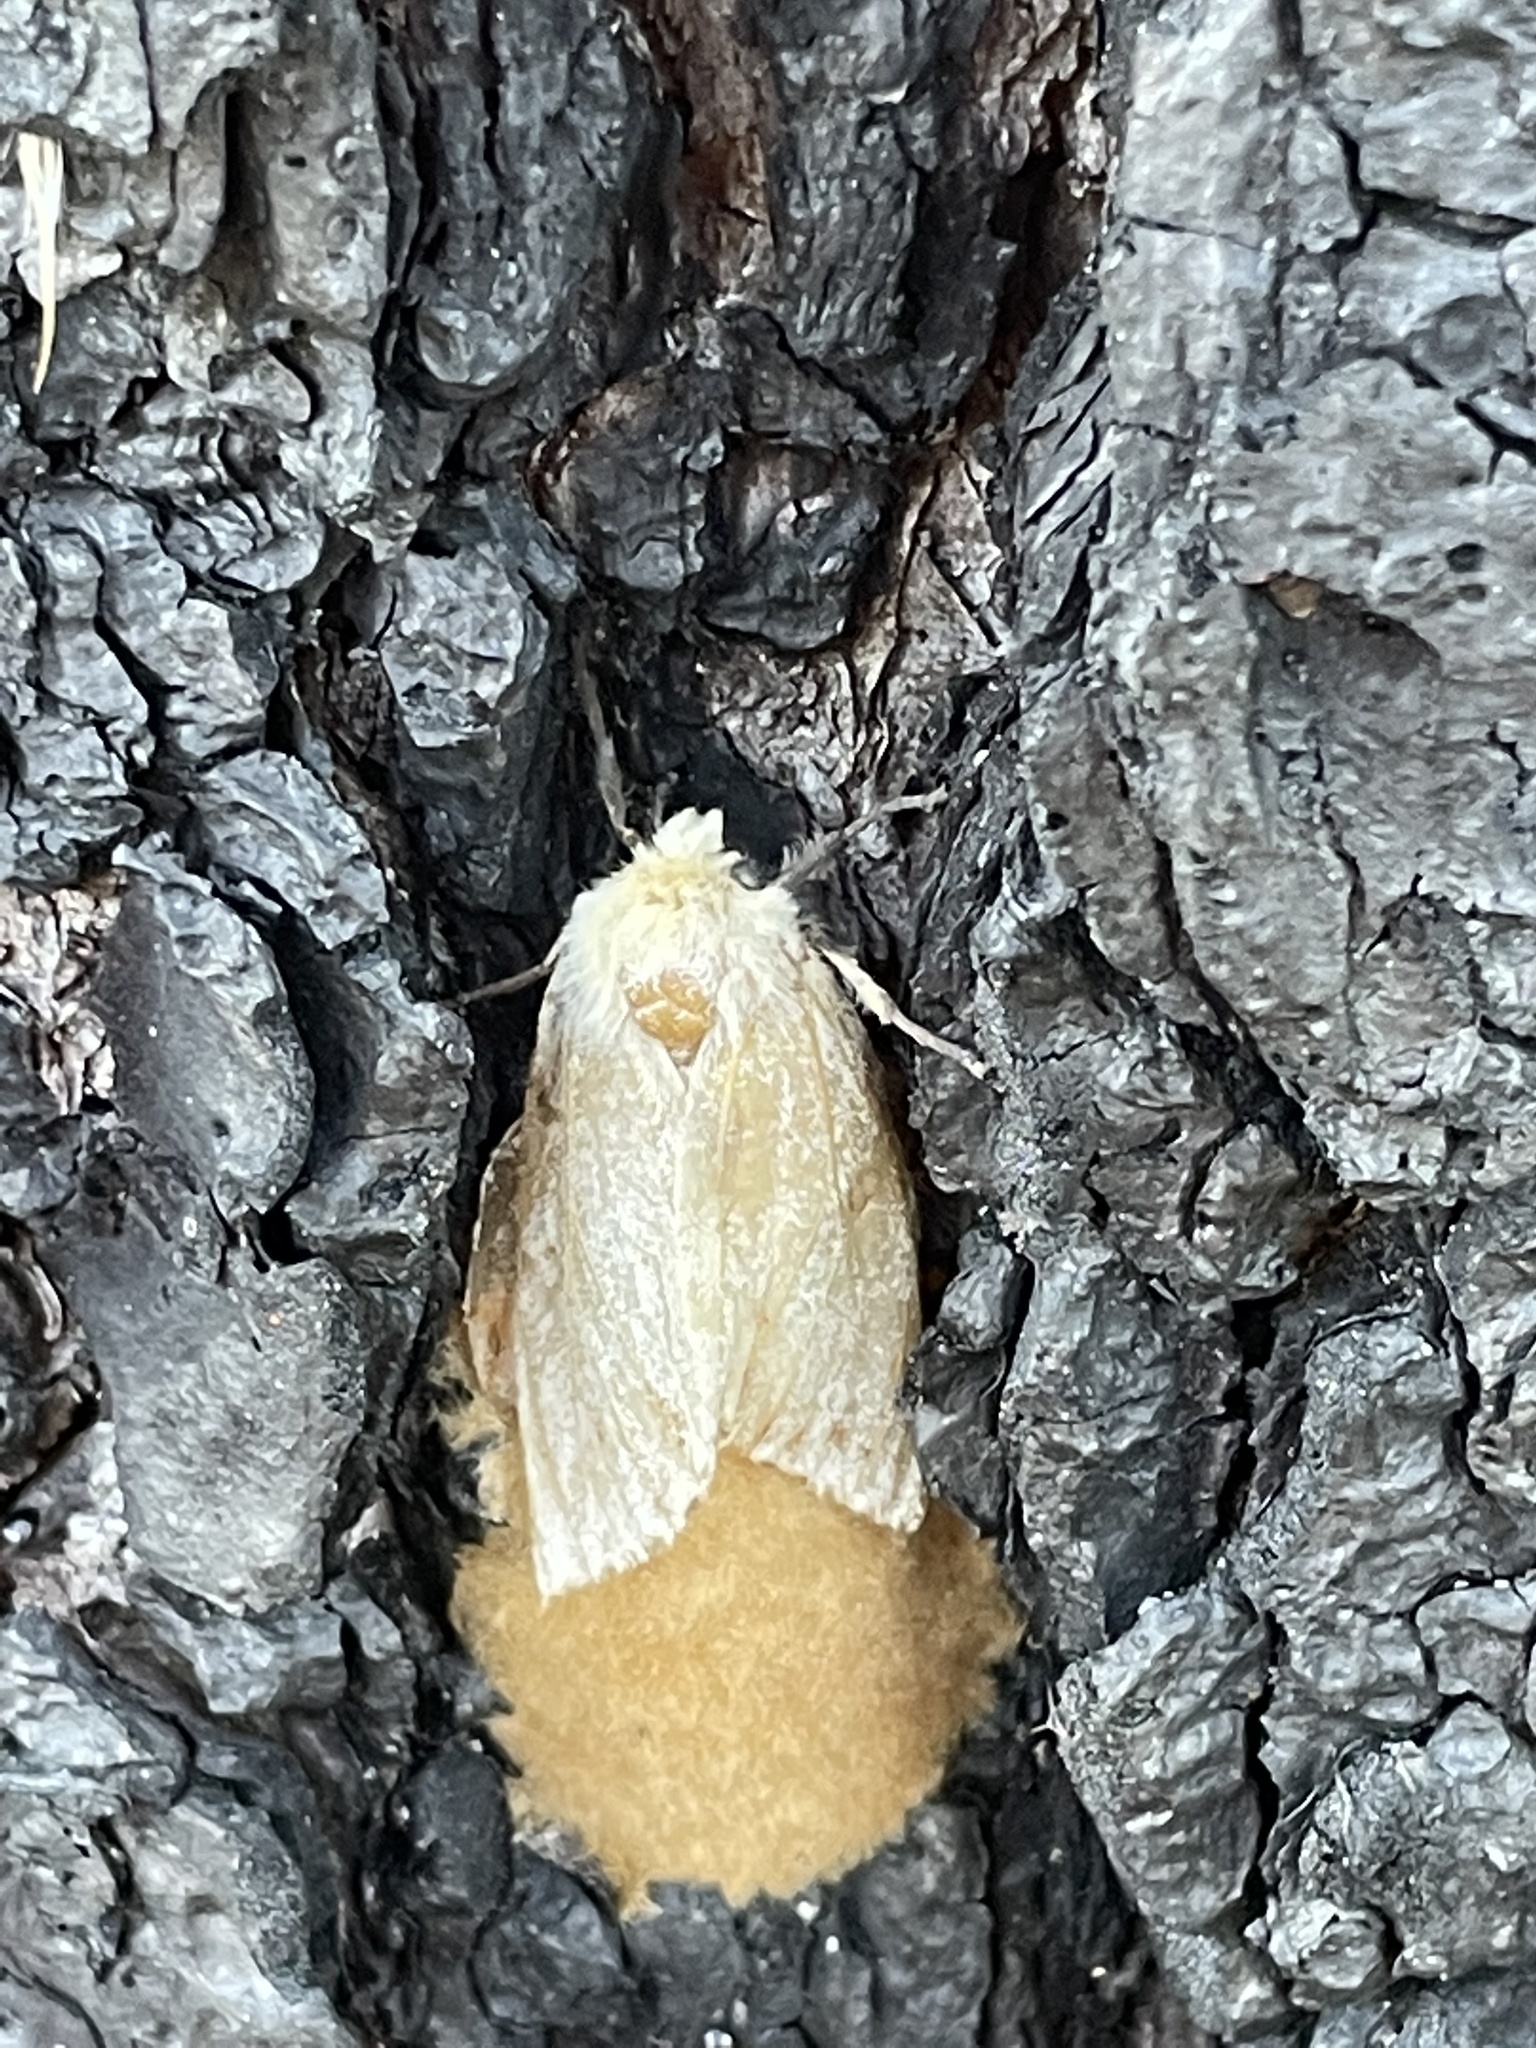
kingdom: Animalia
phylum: Arthropoda
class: Insecta
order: Lepidoptera
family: Erebidae
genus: Lymantria
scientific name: Lymantria dispar
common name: Gypsy moth
